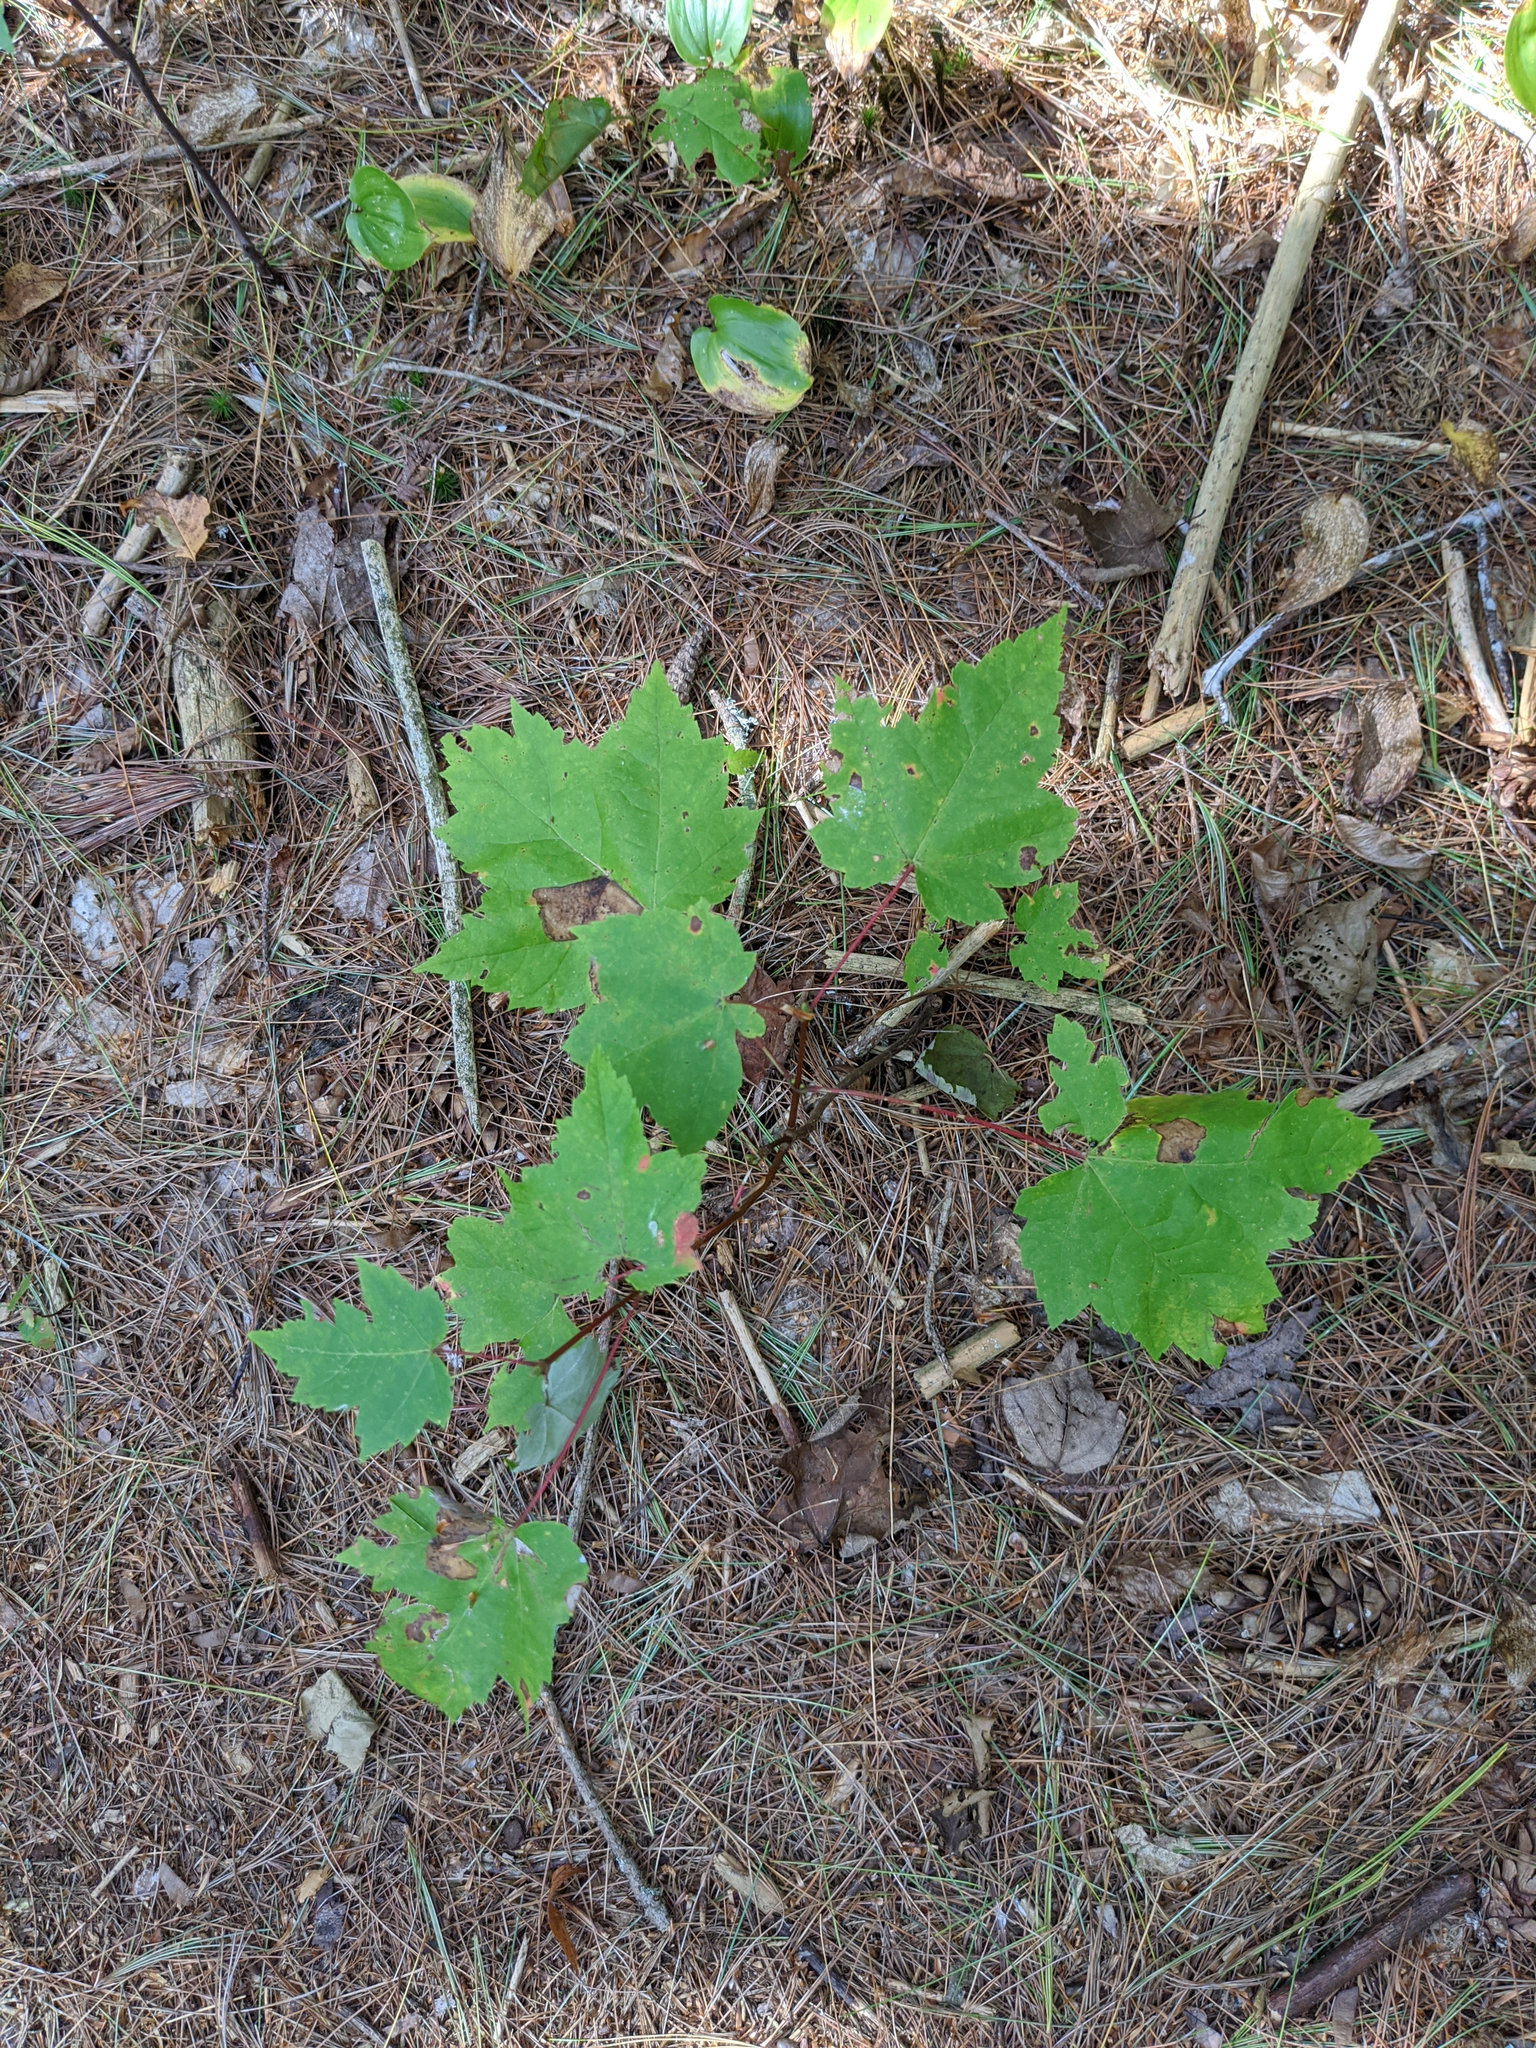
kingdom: Plantae
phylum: Tracheophyta
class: Magnoliopsida
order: Sapindales
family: Sapindaceae
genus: Acer
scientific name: Acer rubrum
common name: Red maple
